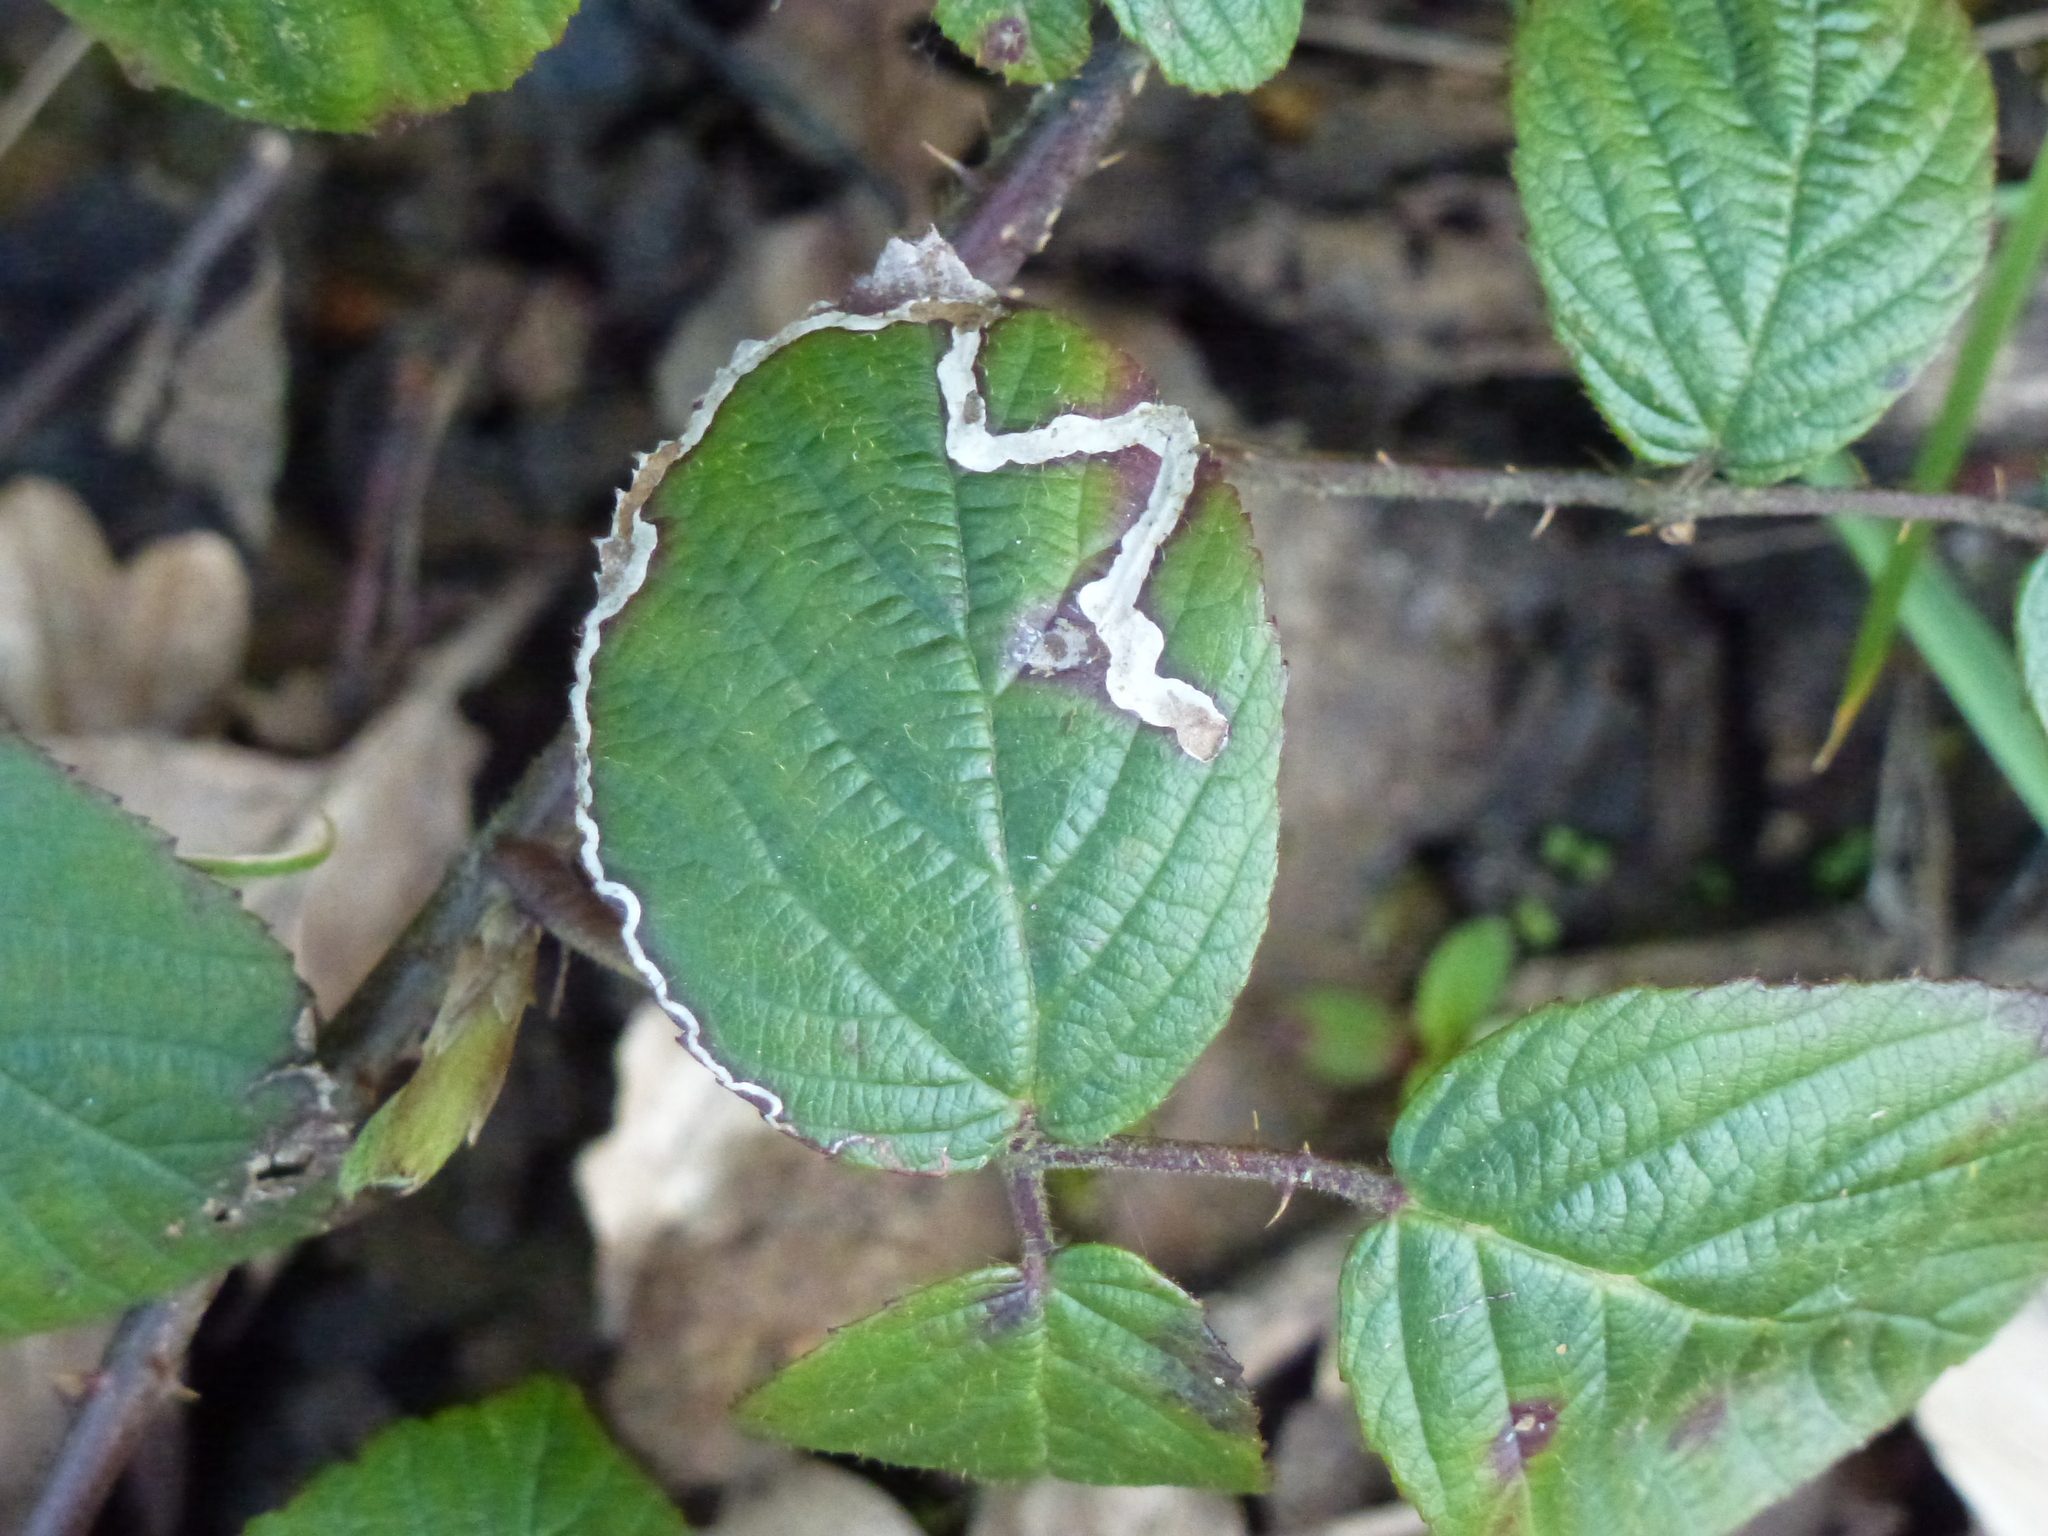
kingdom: Animalia
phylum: Arthropoda
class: Insecta
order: Lepidoptera
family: Nepticulidae
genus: Stigmella
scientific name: Stigmella aurella
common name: Golden pigmy
